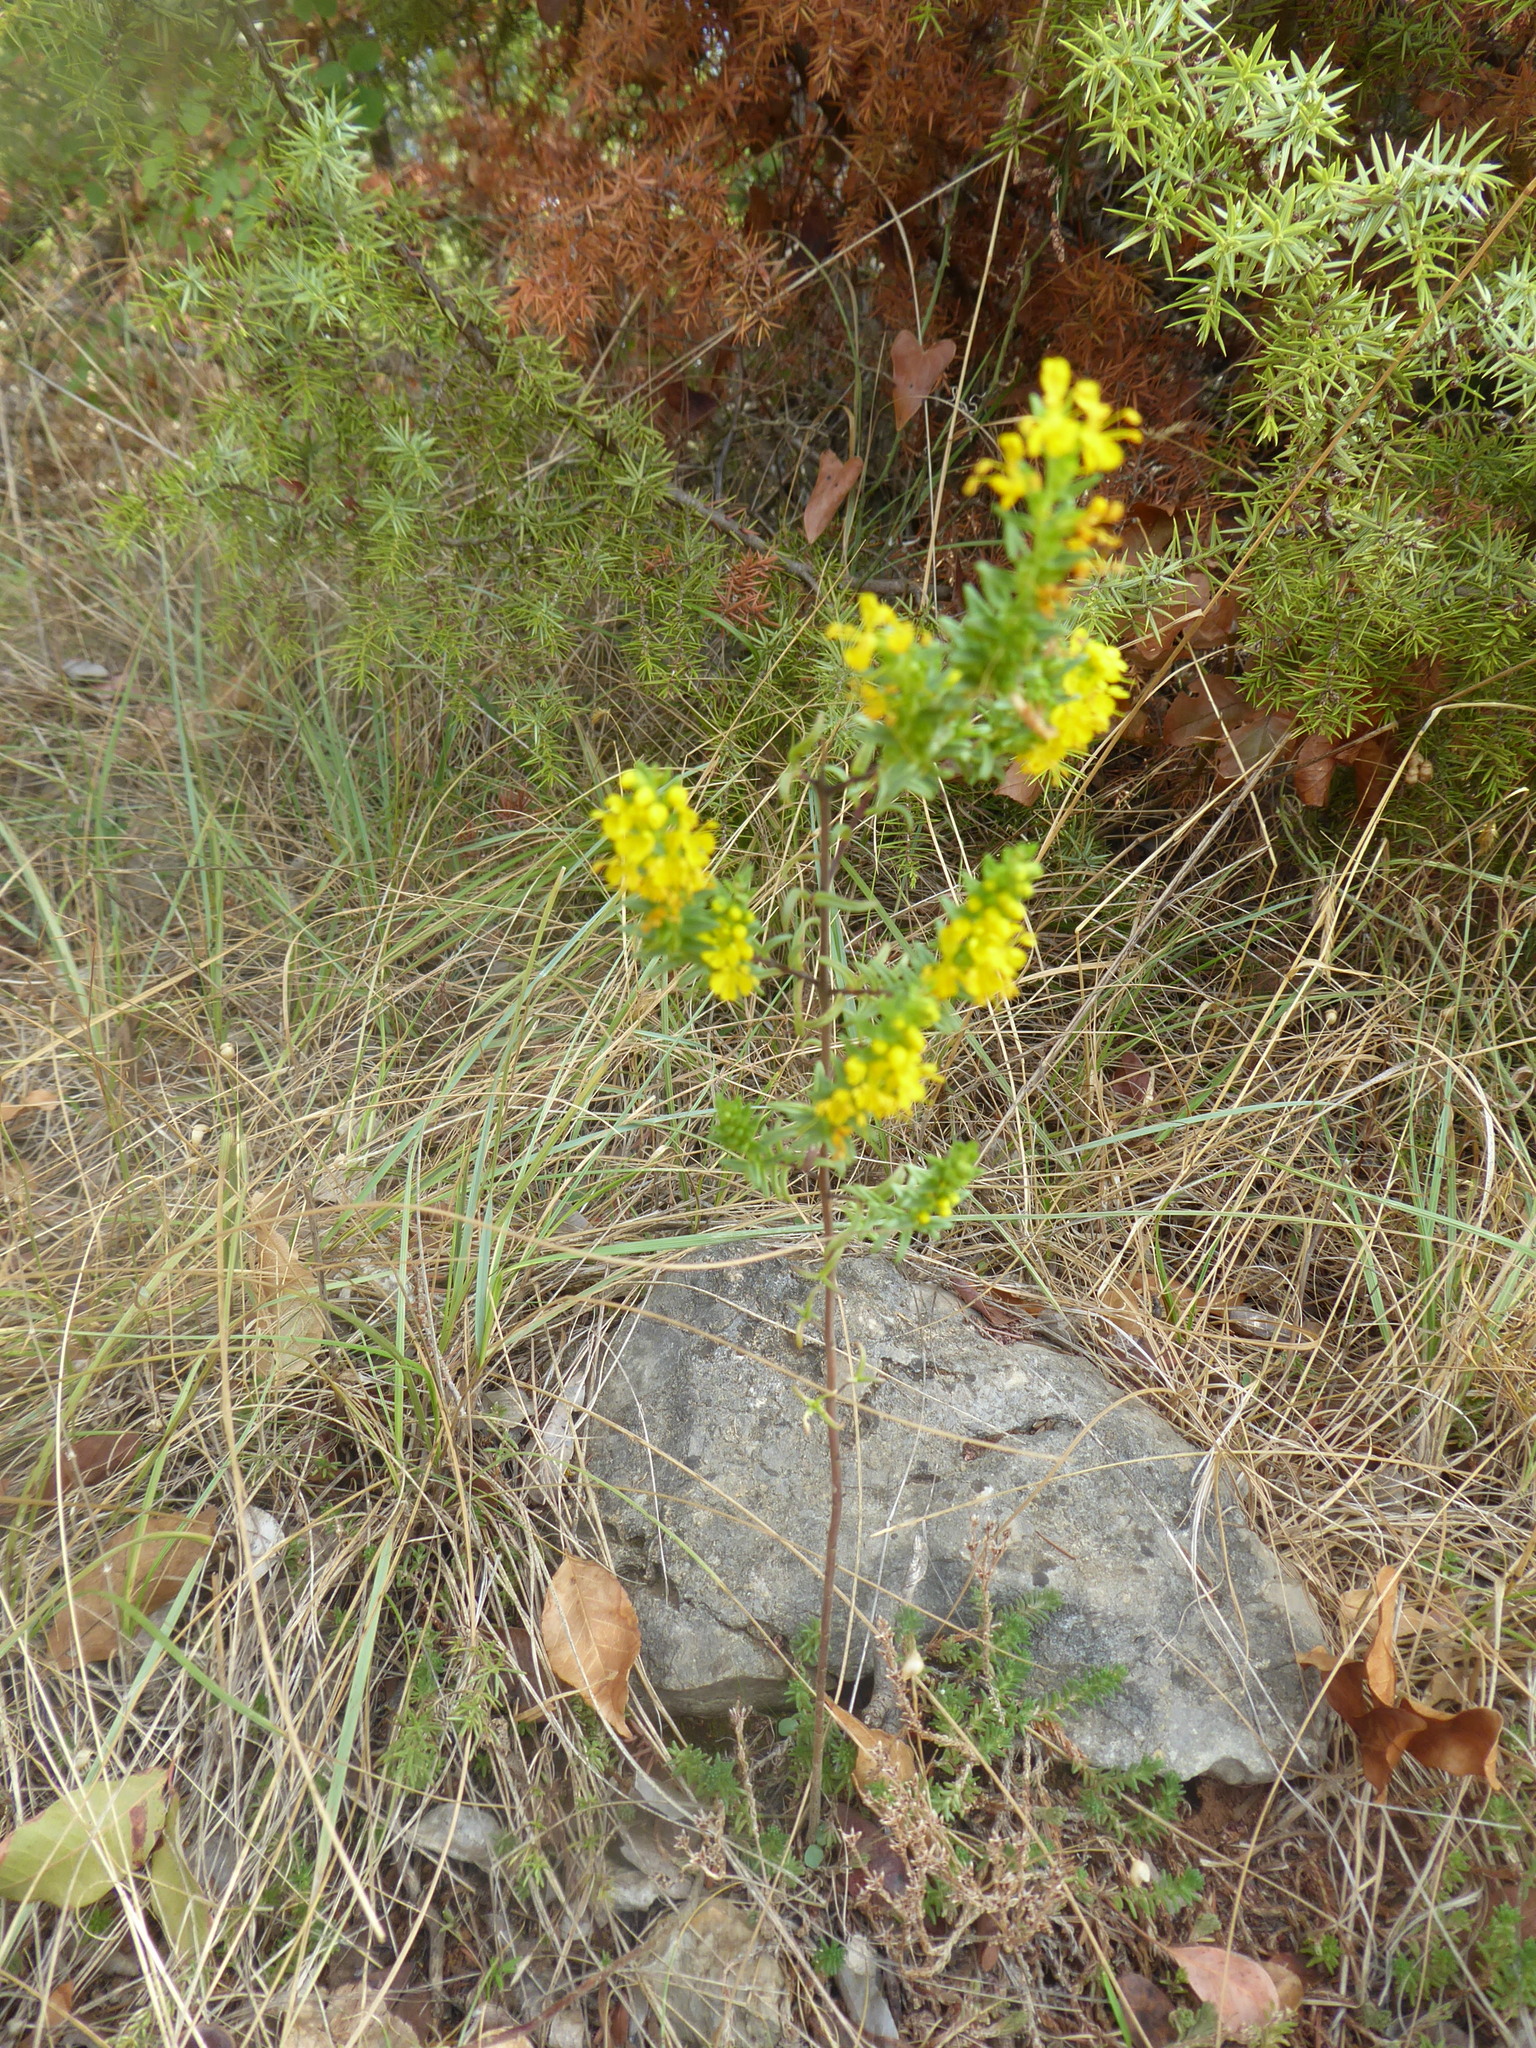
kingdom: Plantae
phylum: Tracheophyta
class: Magnoliopsida
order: Lamiales
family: Orobanchaceae
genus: Odontites
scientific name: Odontites luteus
